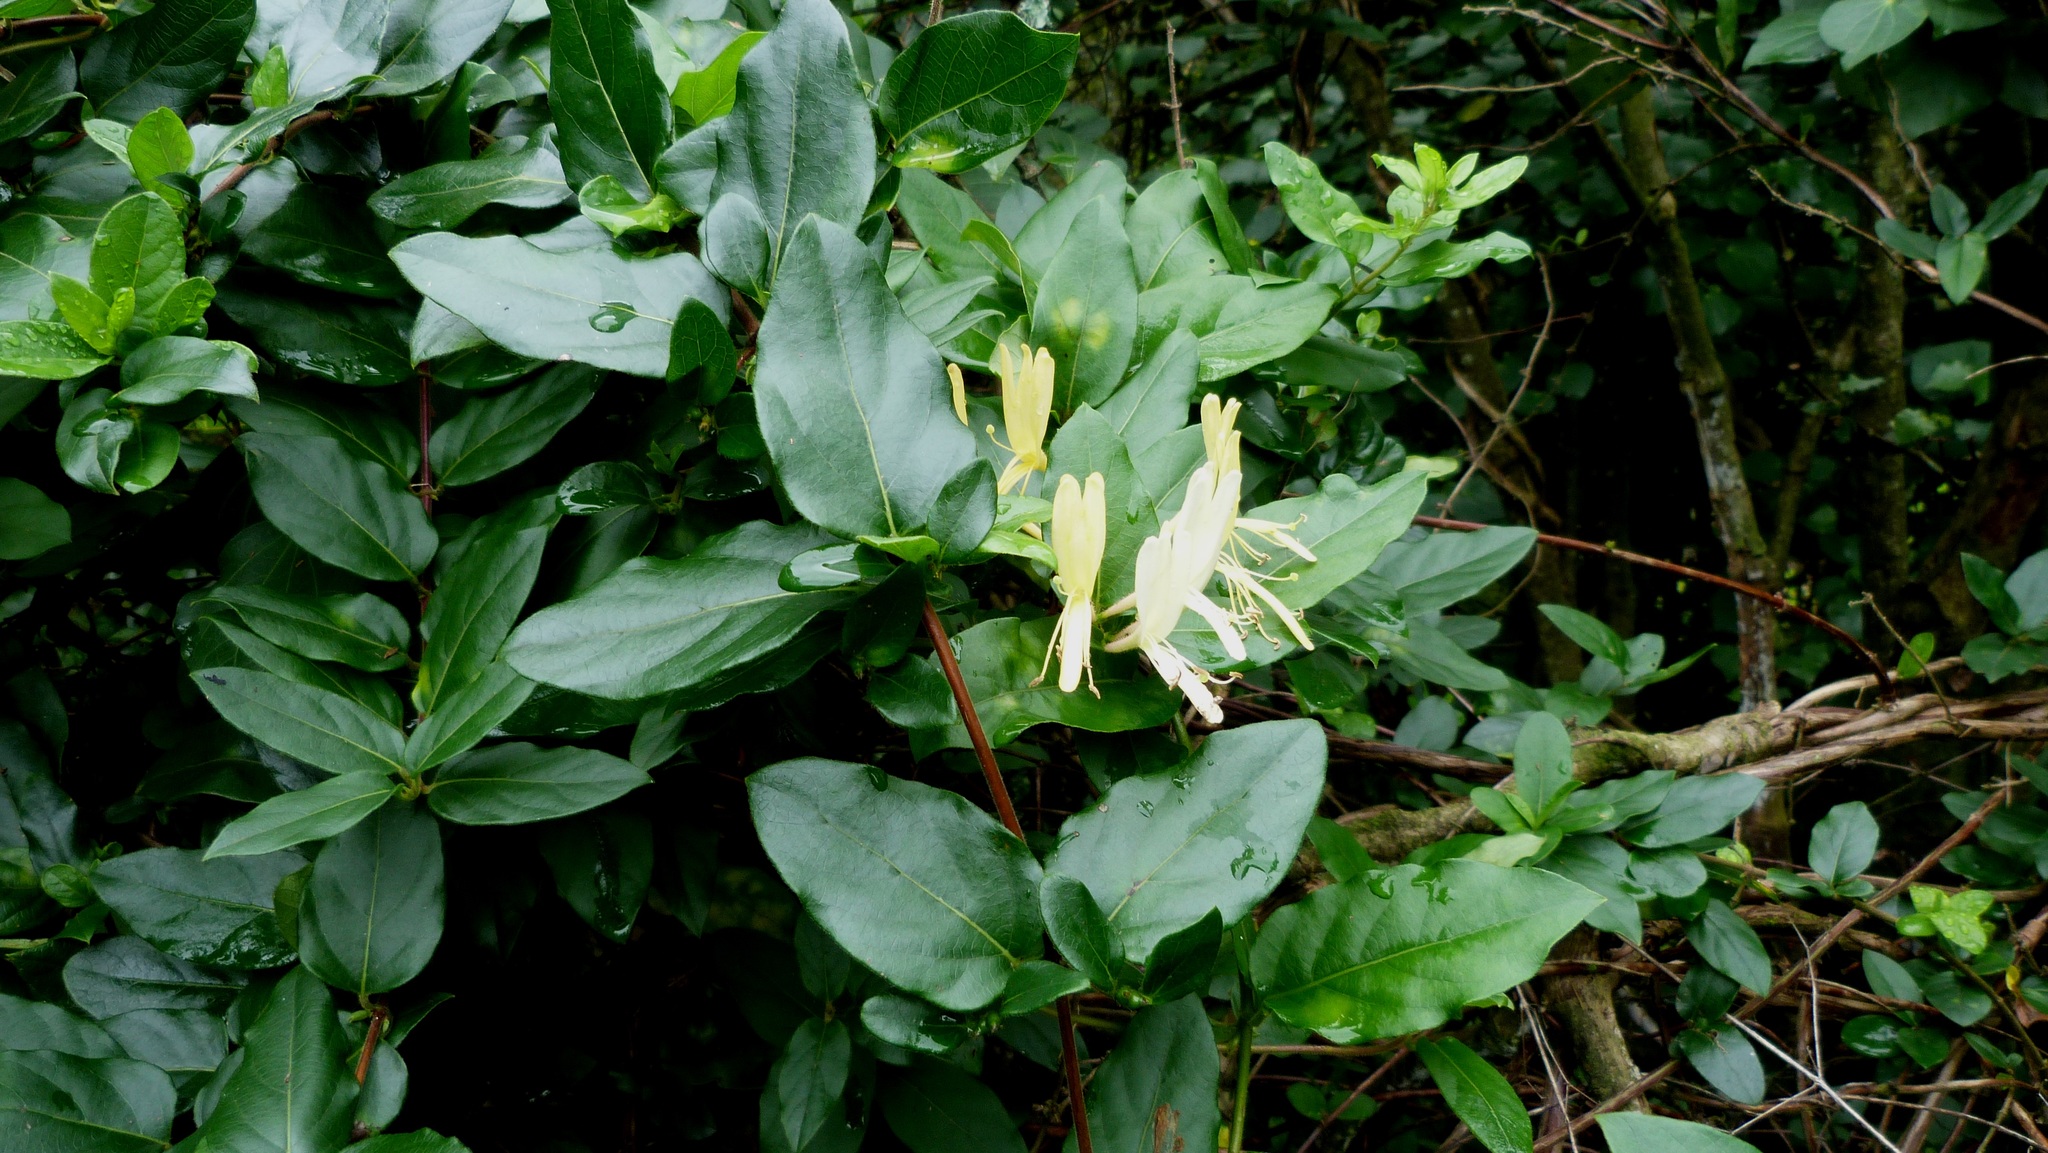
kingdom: Plantae
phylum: Tracheophyta
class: Magnoliopsida
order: Dipsacales
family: Caprifoliaceae
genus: Lonicera
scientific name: Lonicera japonica
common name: Japanese honeysuckle
